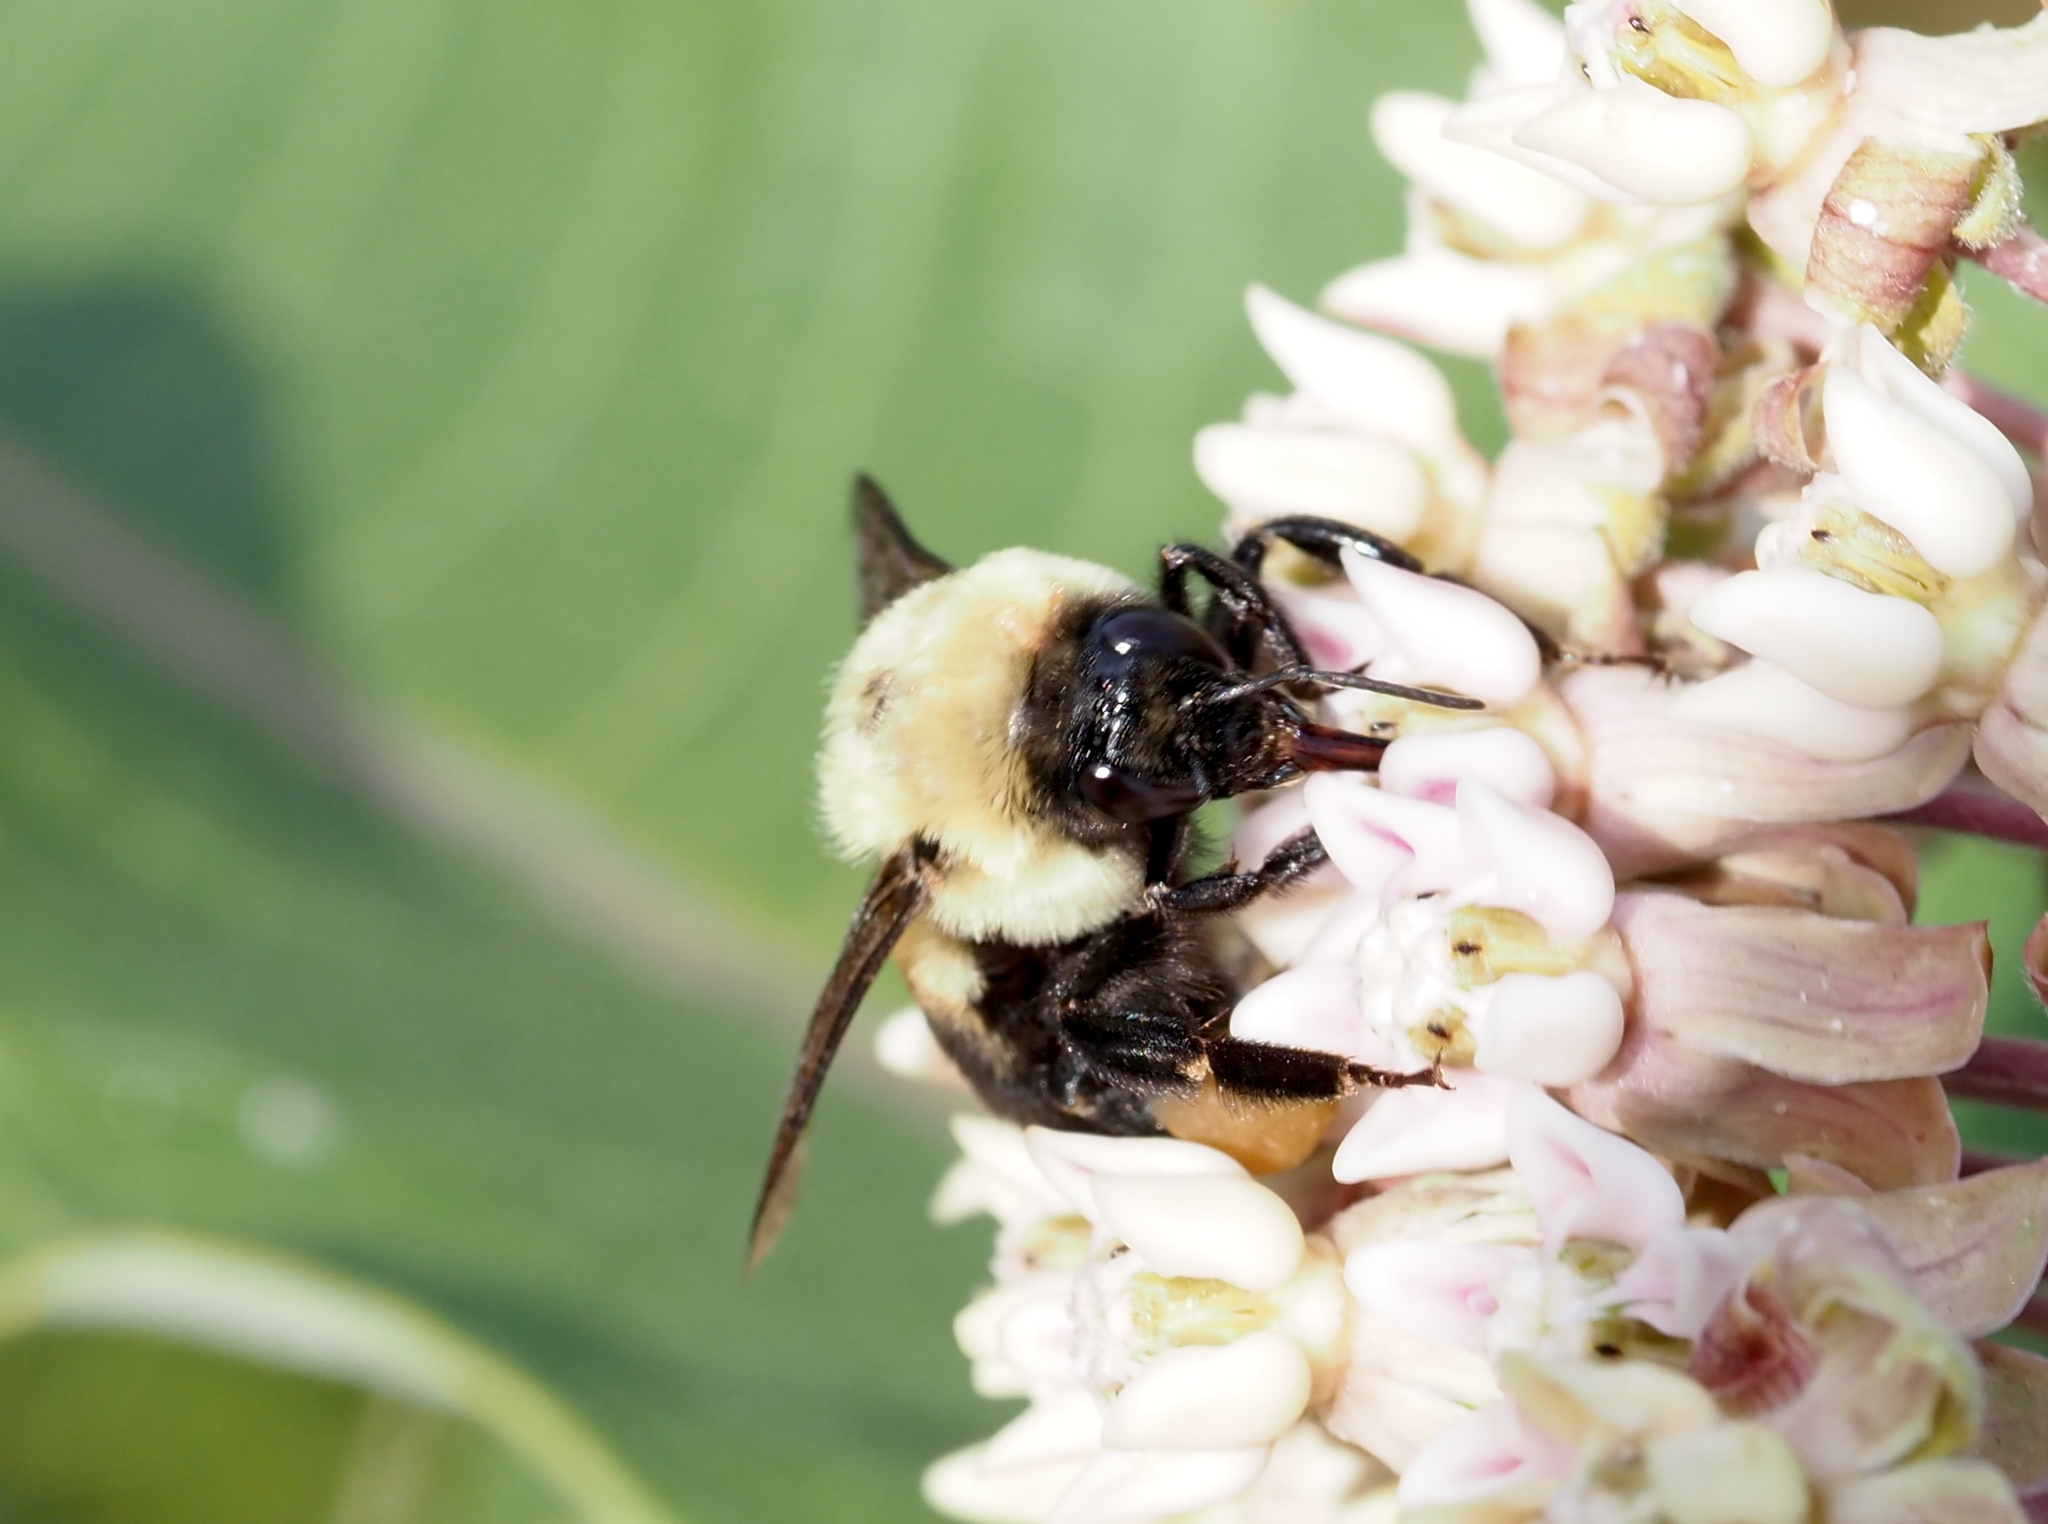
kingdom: Animalia
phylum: Arthropoda
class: Insecta
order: Hymenoptera
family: Apidae
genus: Bombus
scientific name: Bombus griseocollis
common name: Brown-belted bumble bee
